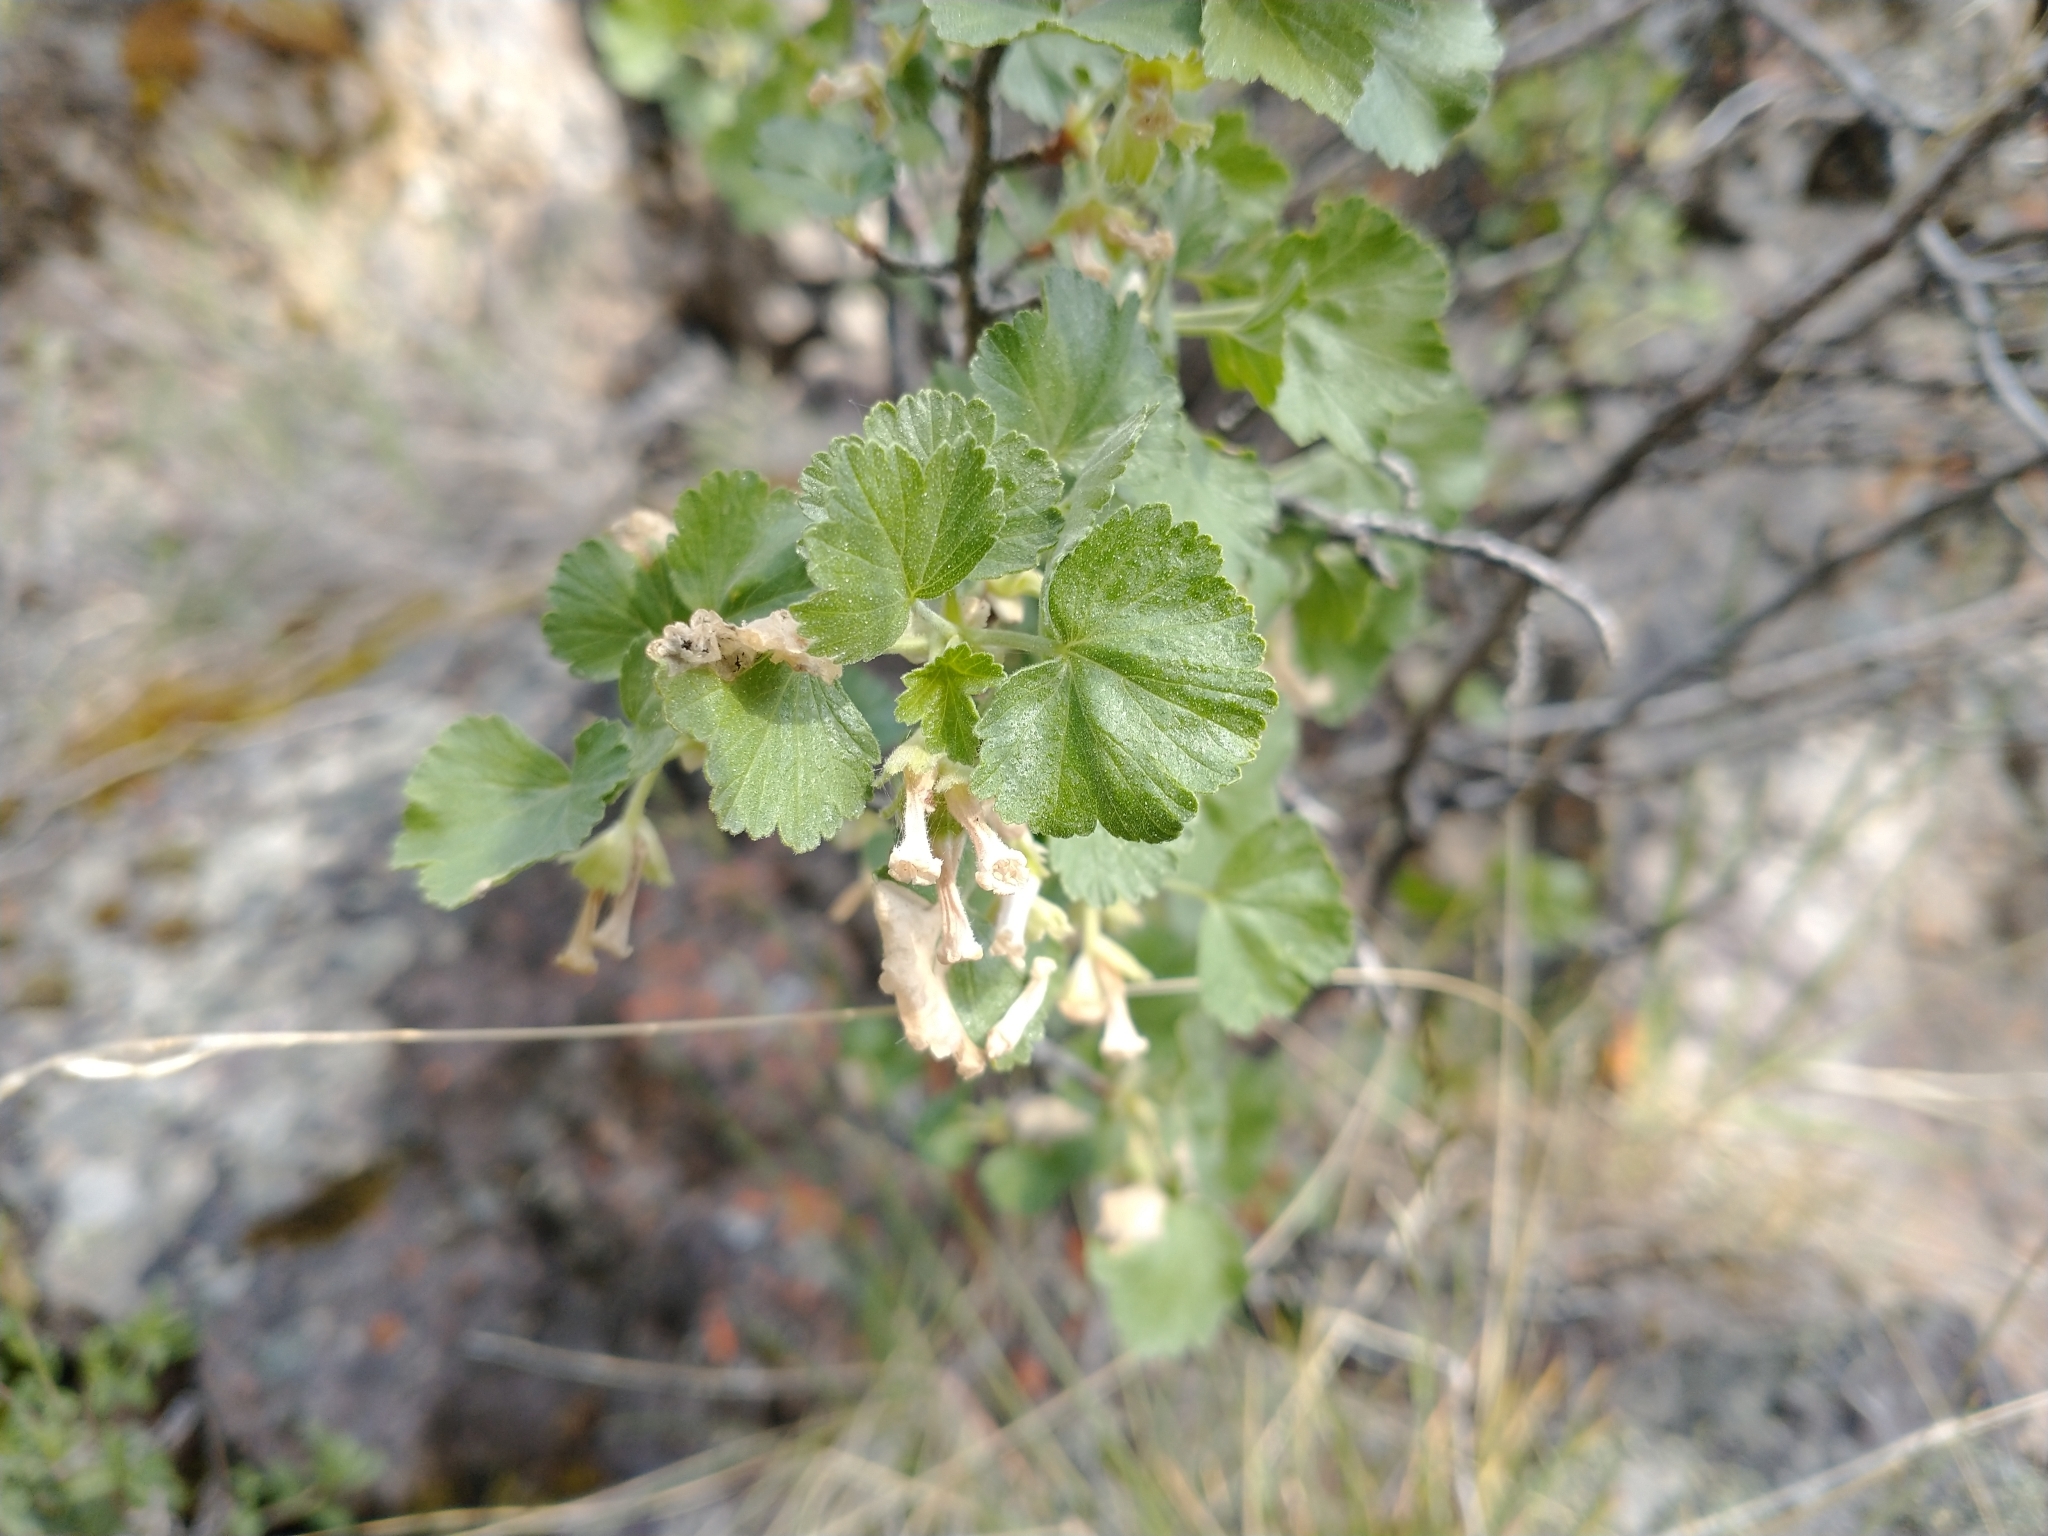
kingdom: Plantae
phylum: Tracheophyta
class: Magnoliopsida
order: Saxifragales
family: Grossulariaceae
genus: Ribes
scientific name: Ribes cereum
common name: Wax currant
